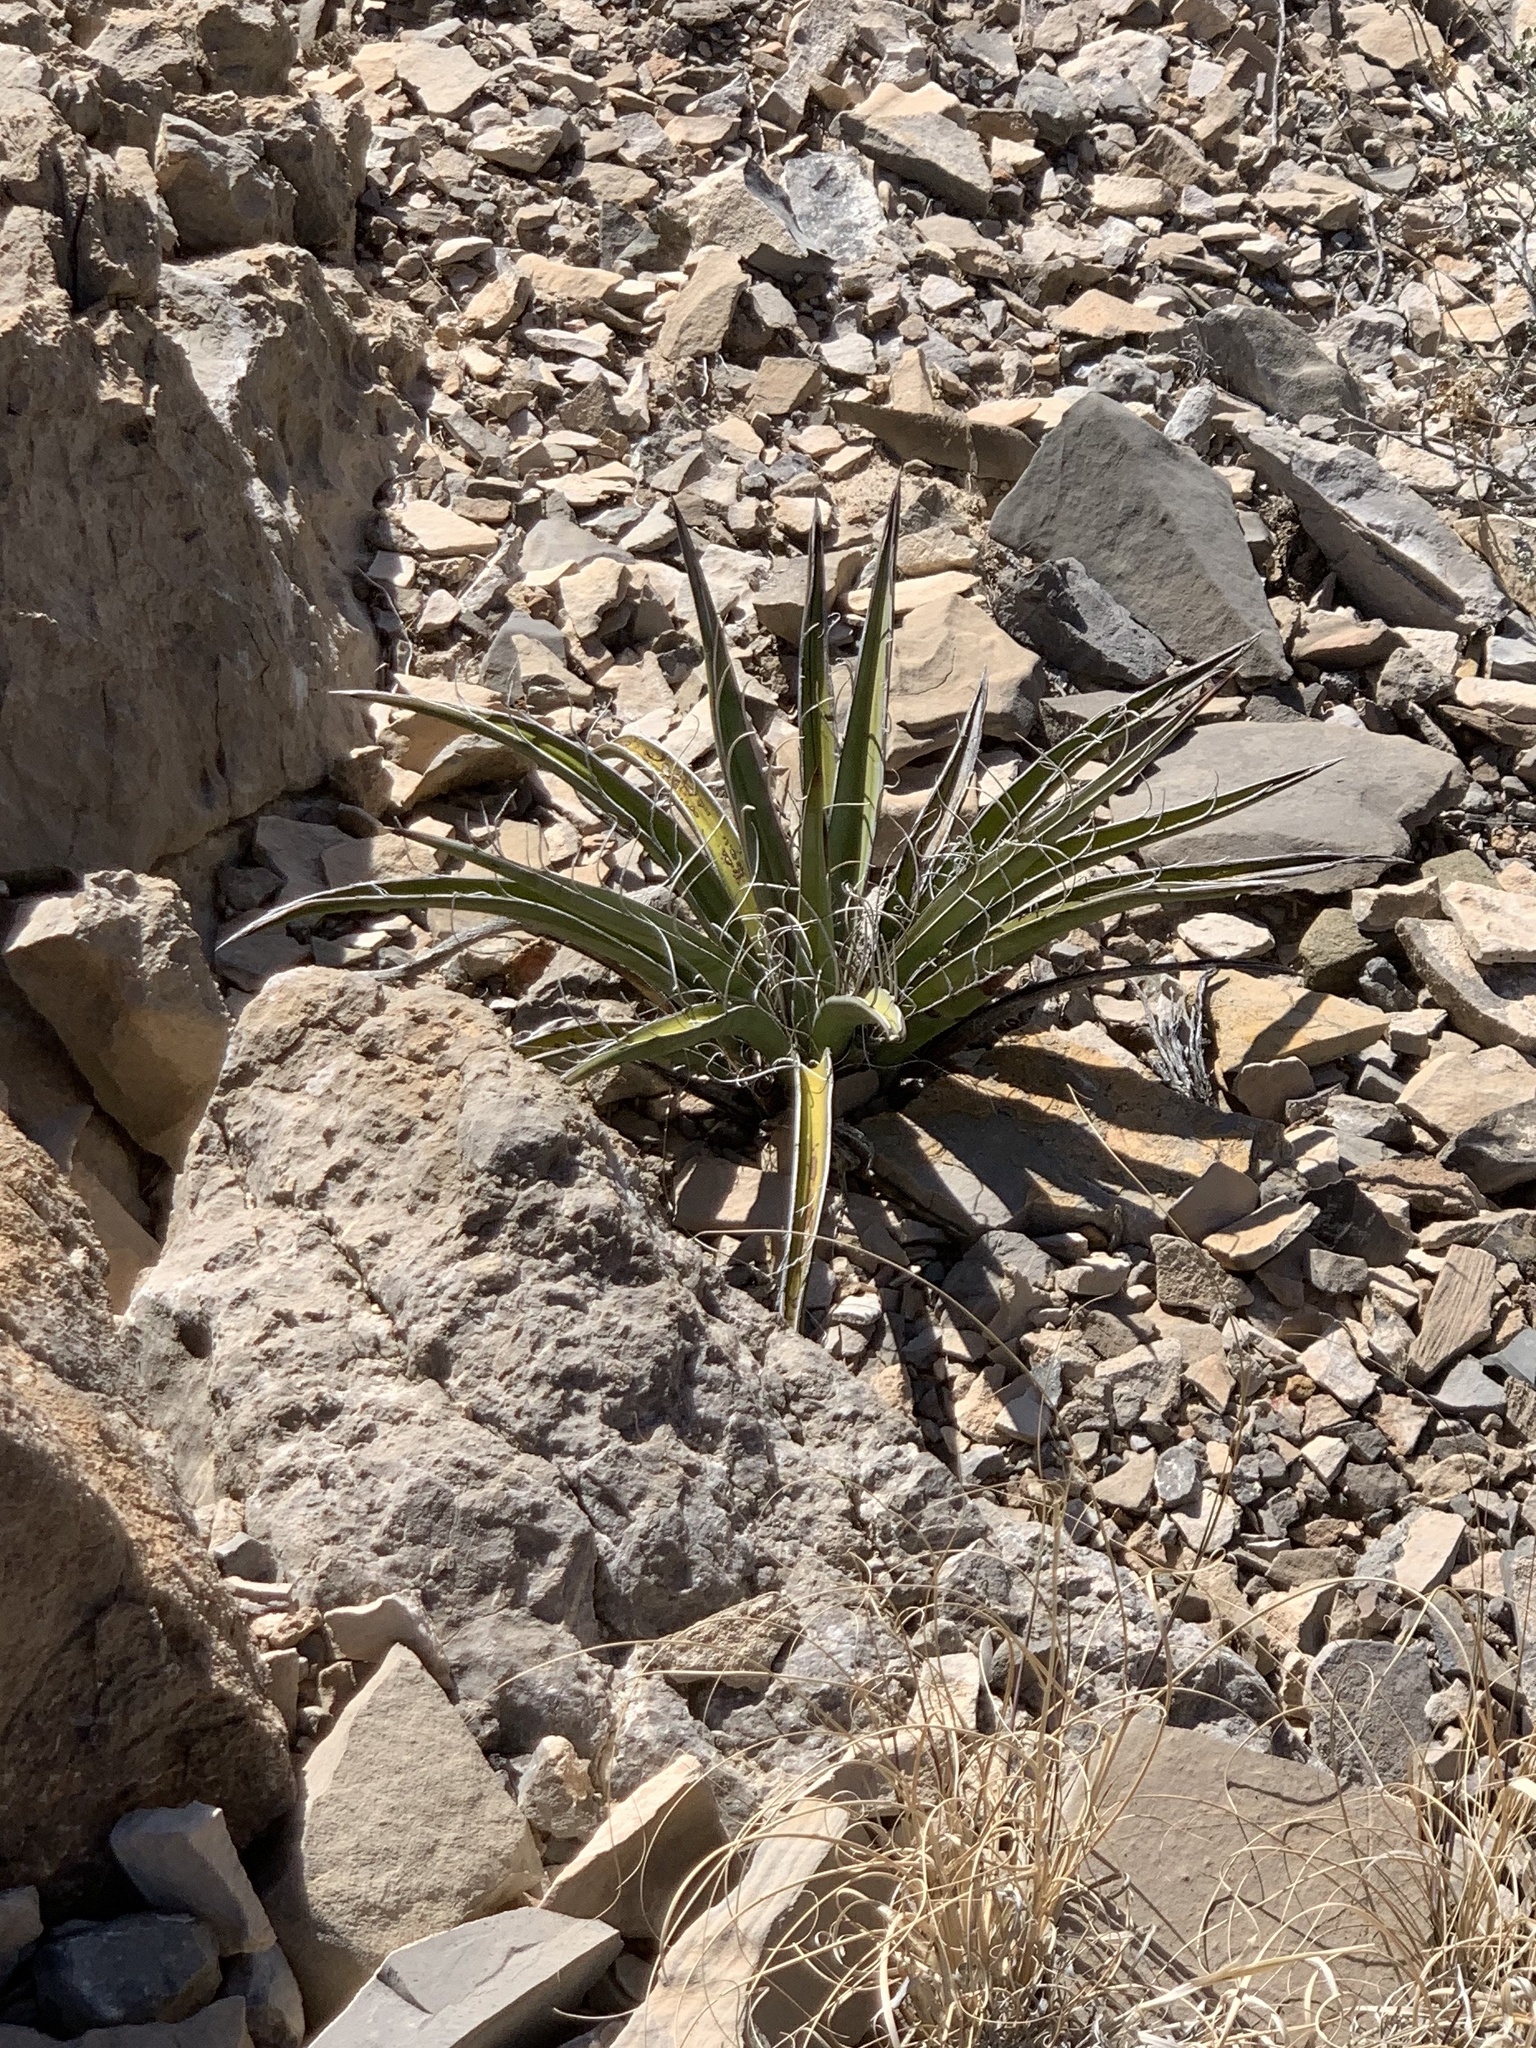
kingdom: Plantae
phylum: Tracheophyta
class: Liliopsida
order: Asparagales
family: Asparagaceae
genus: Yucca
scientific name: Yucca baccata
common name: Banana yucca
